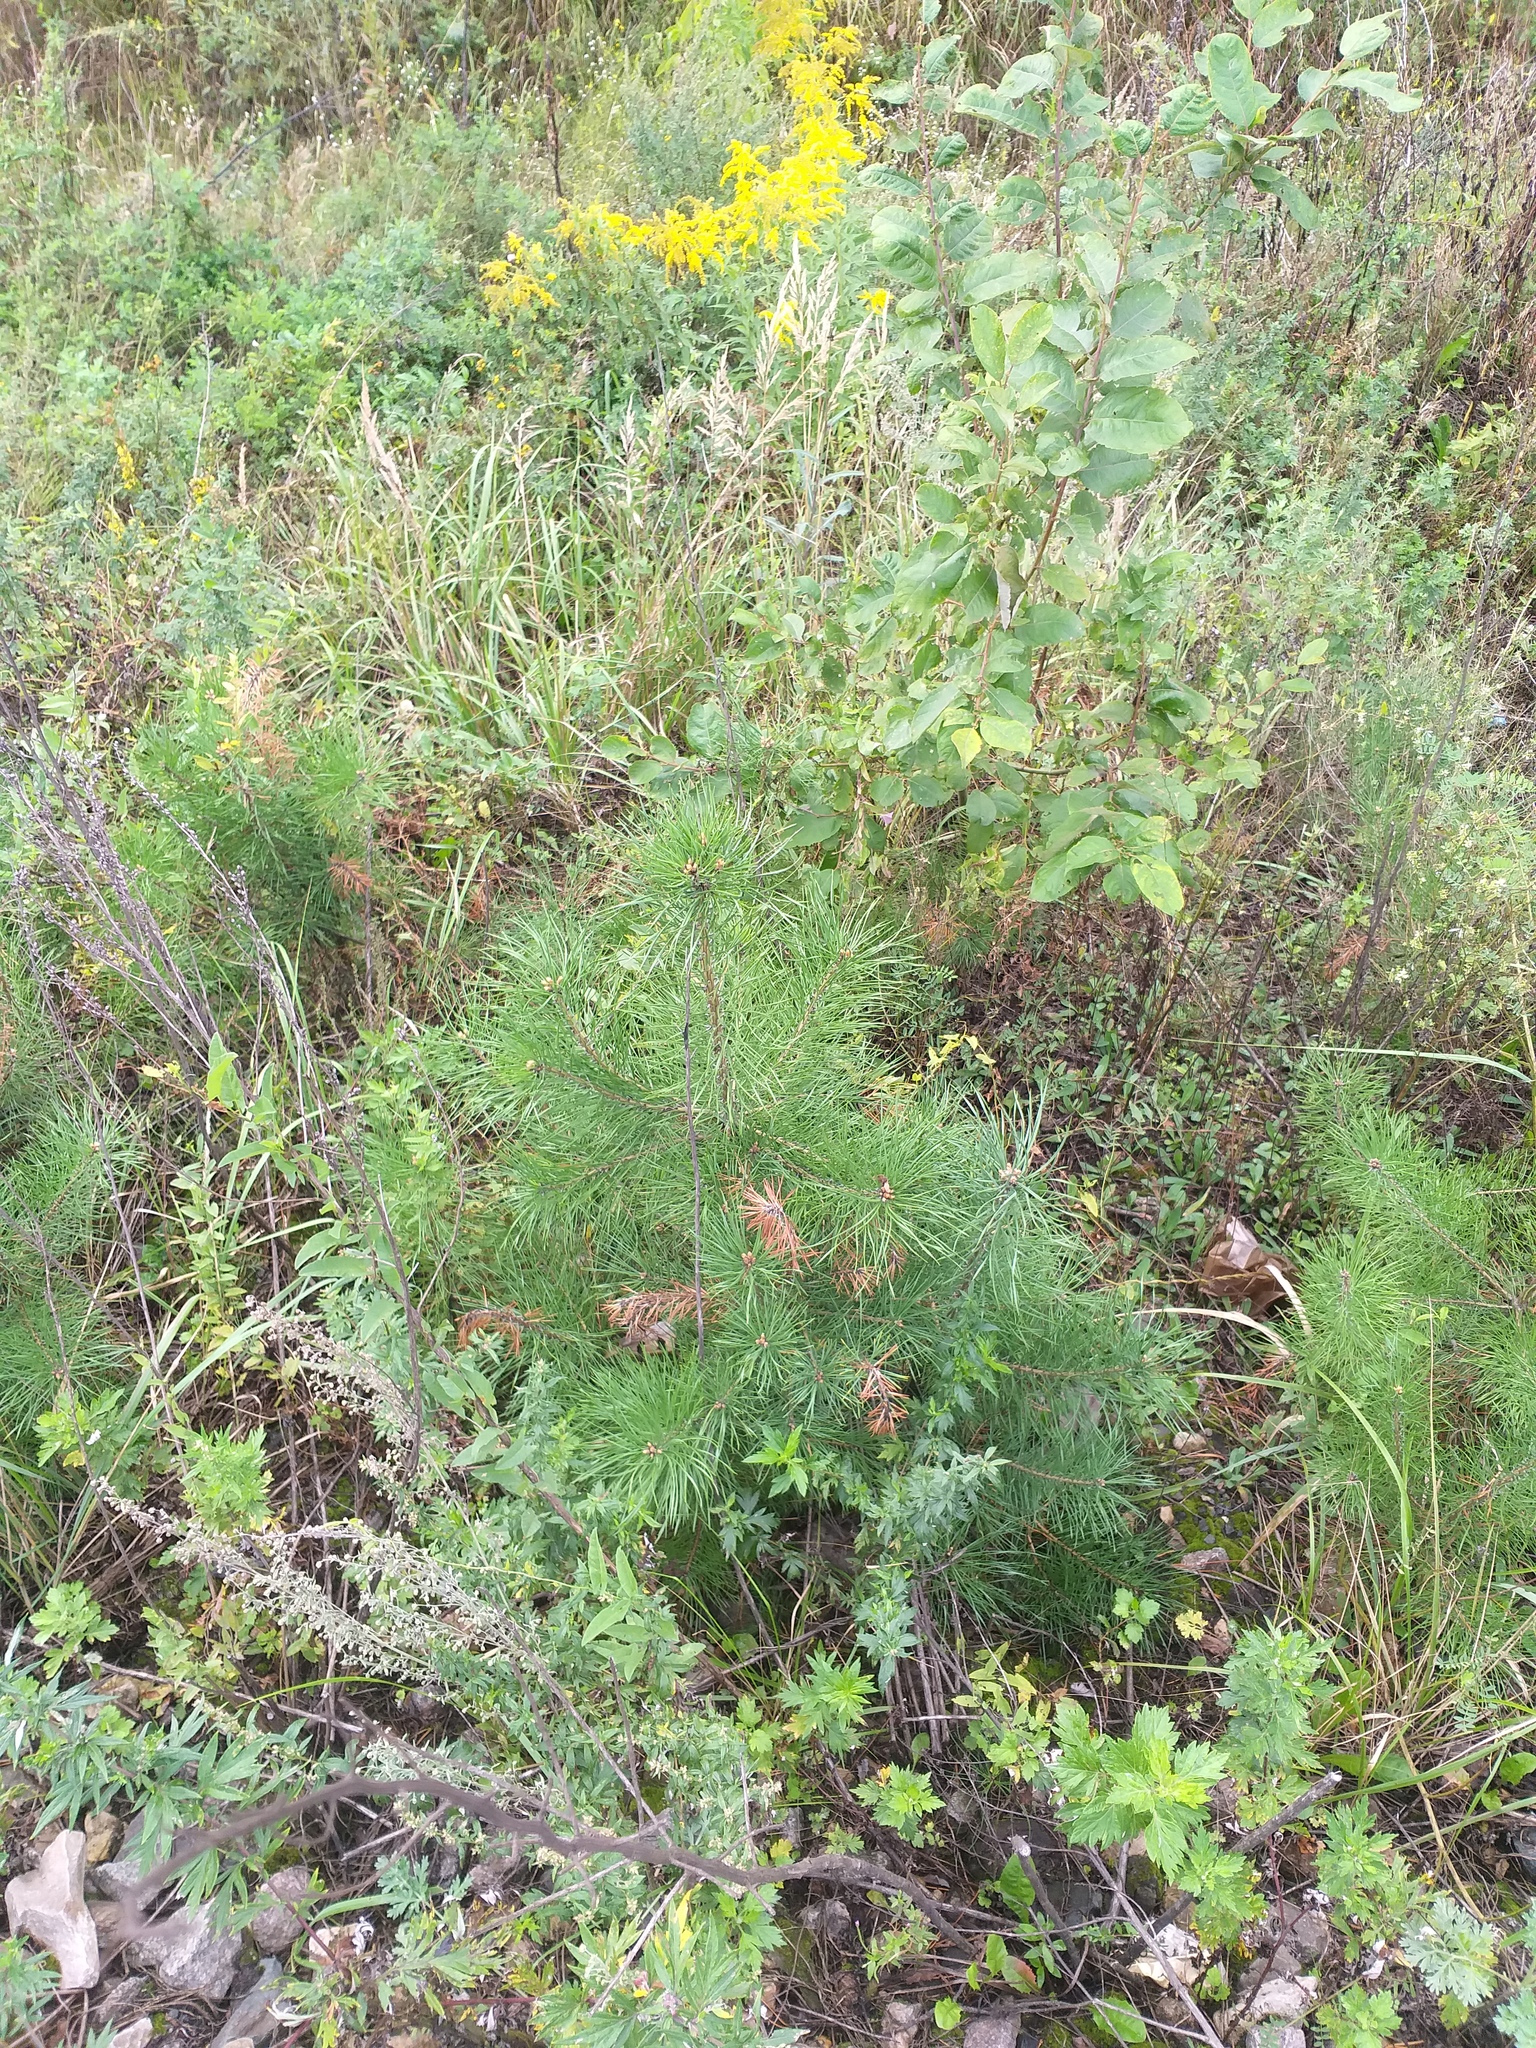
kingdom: Plantae
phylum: Tracheophyta
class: Pinopsida
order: Pinales
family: Pinaceae
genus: Pinus
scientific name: Pinus sylvestris
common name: Scots pine
